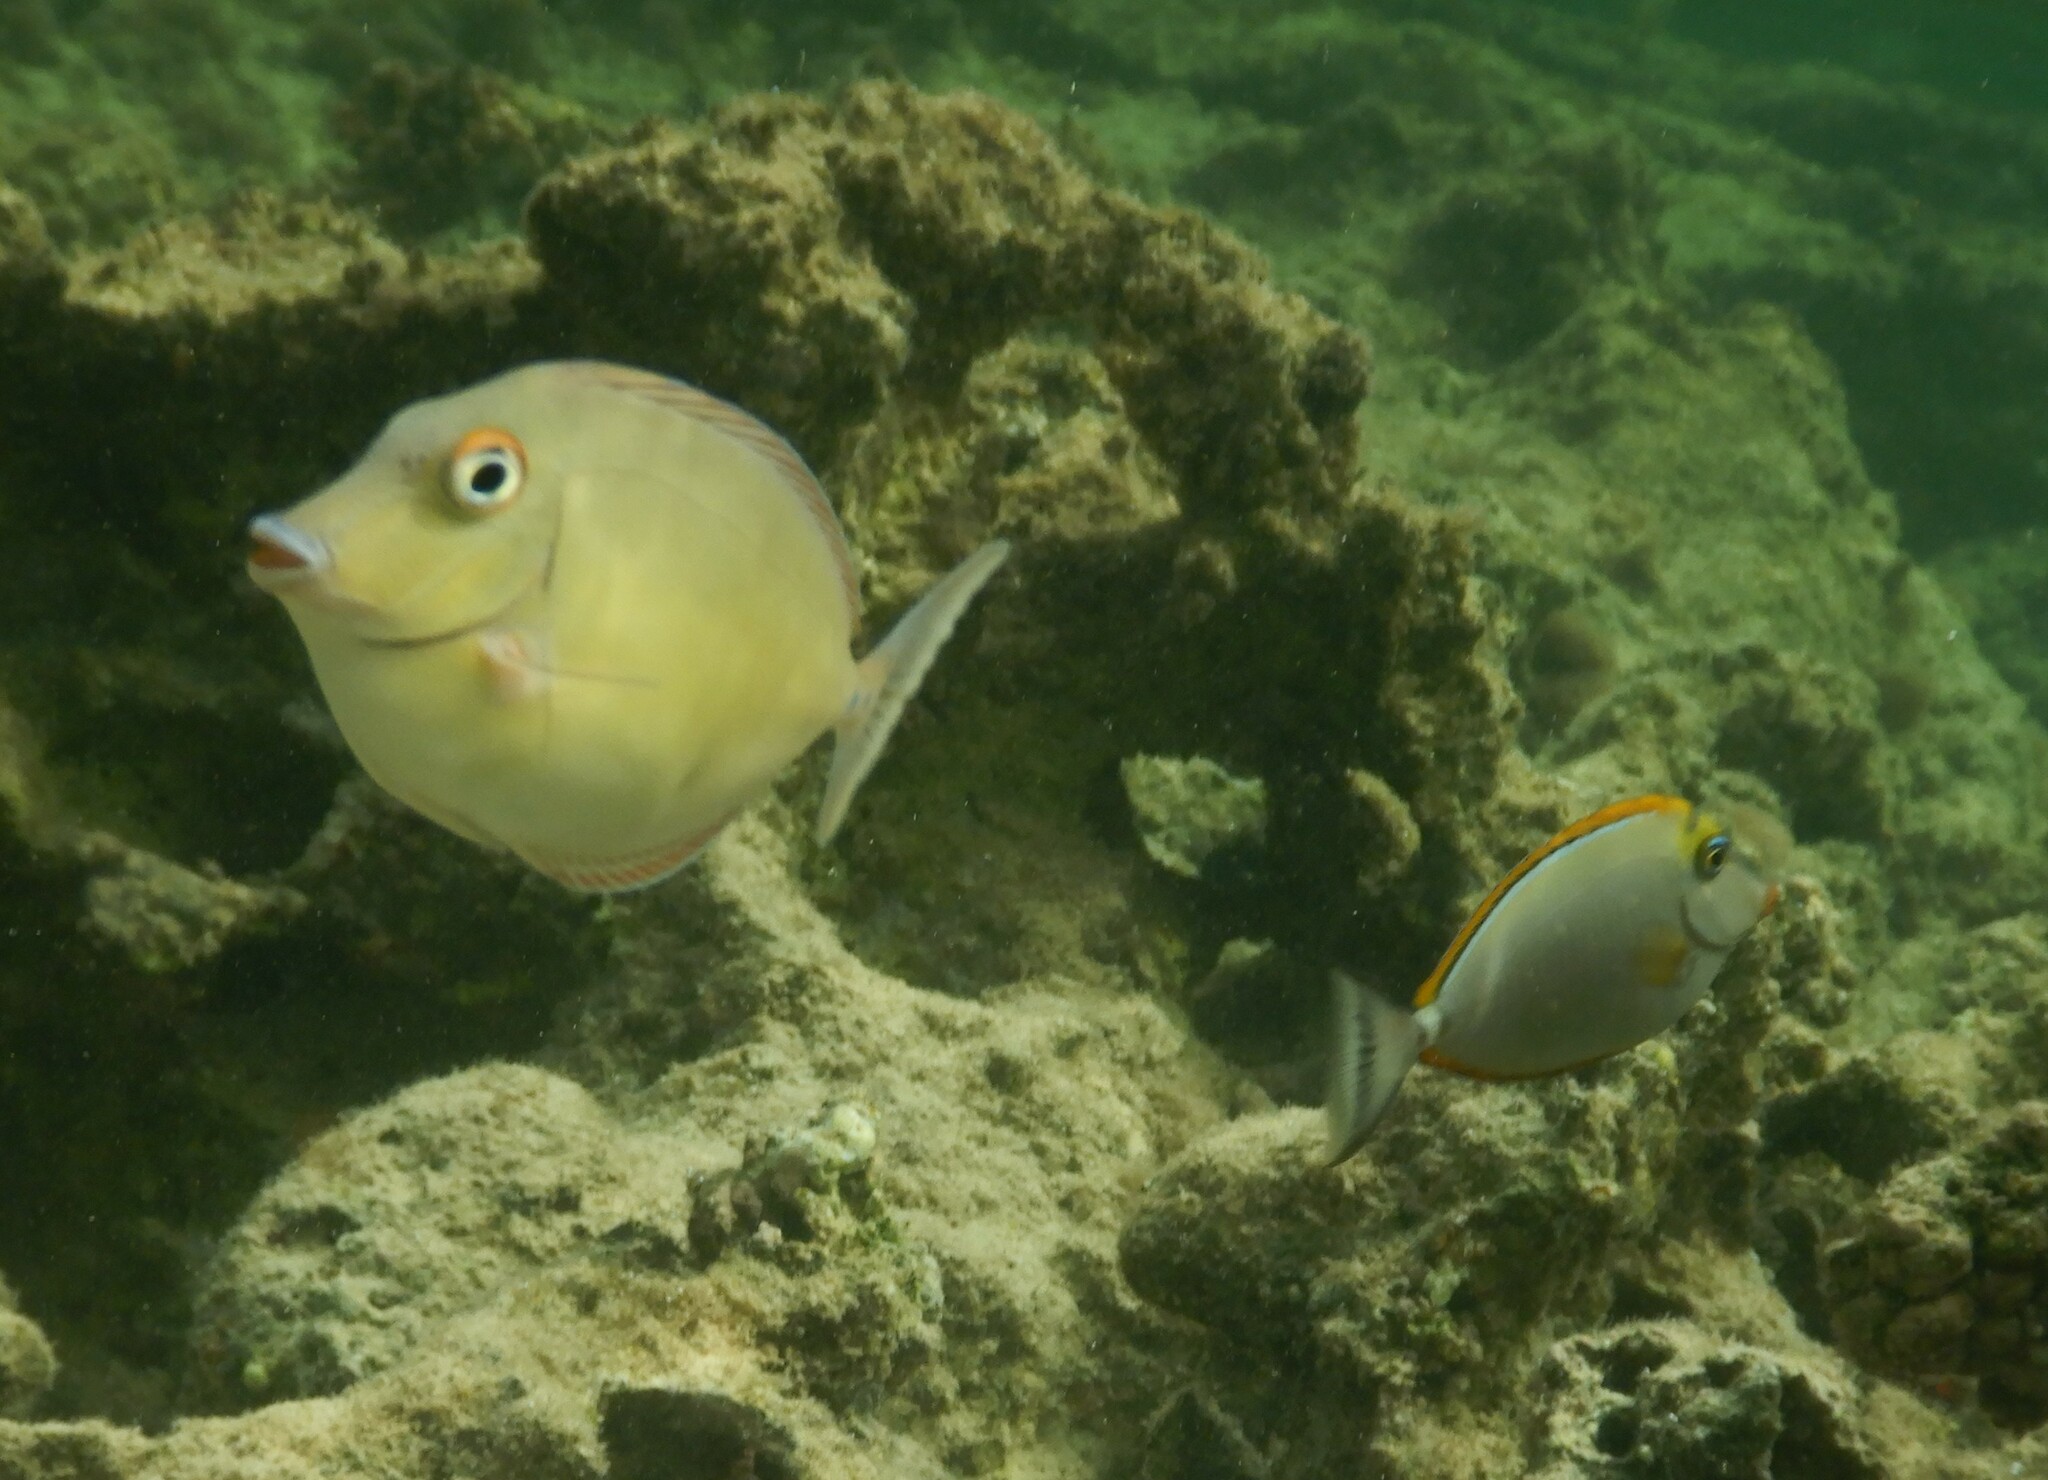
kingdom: Animalia
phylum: Chordata
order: Perciformes
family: Acanthuridae
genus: Naso
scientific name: Naso unicornis
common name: Bluespine unicornfish
